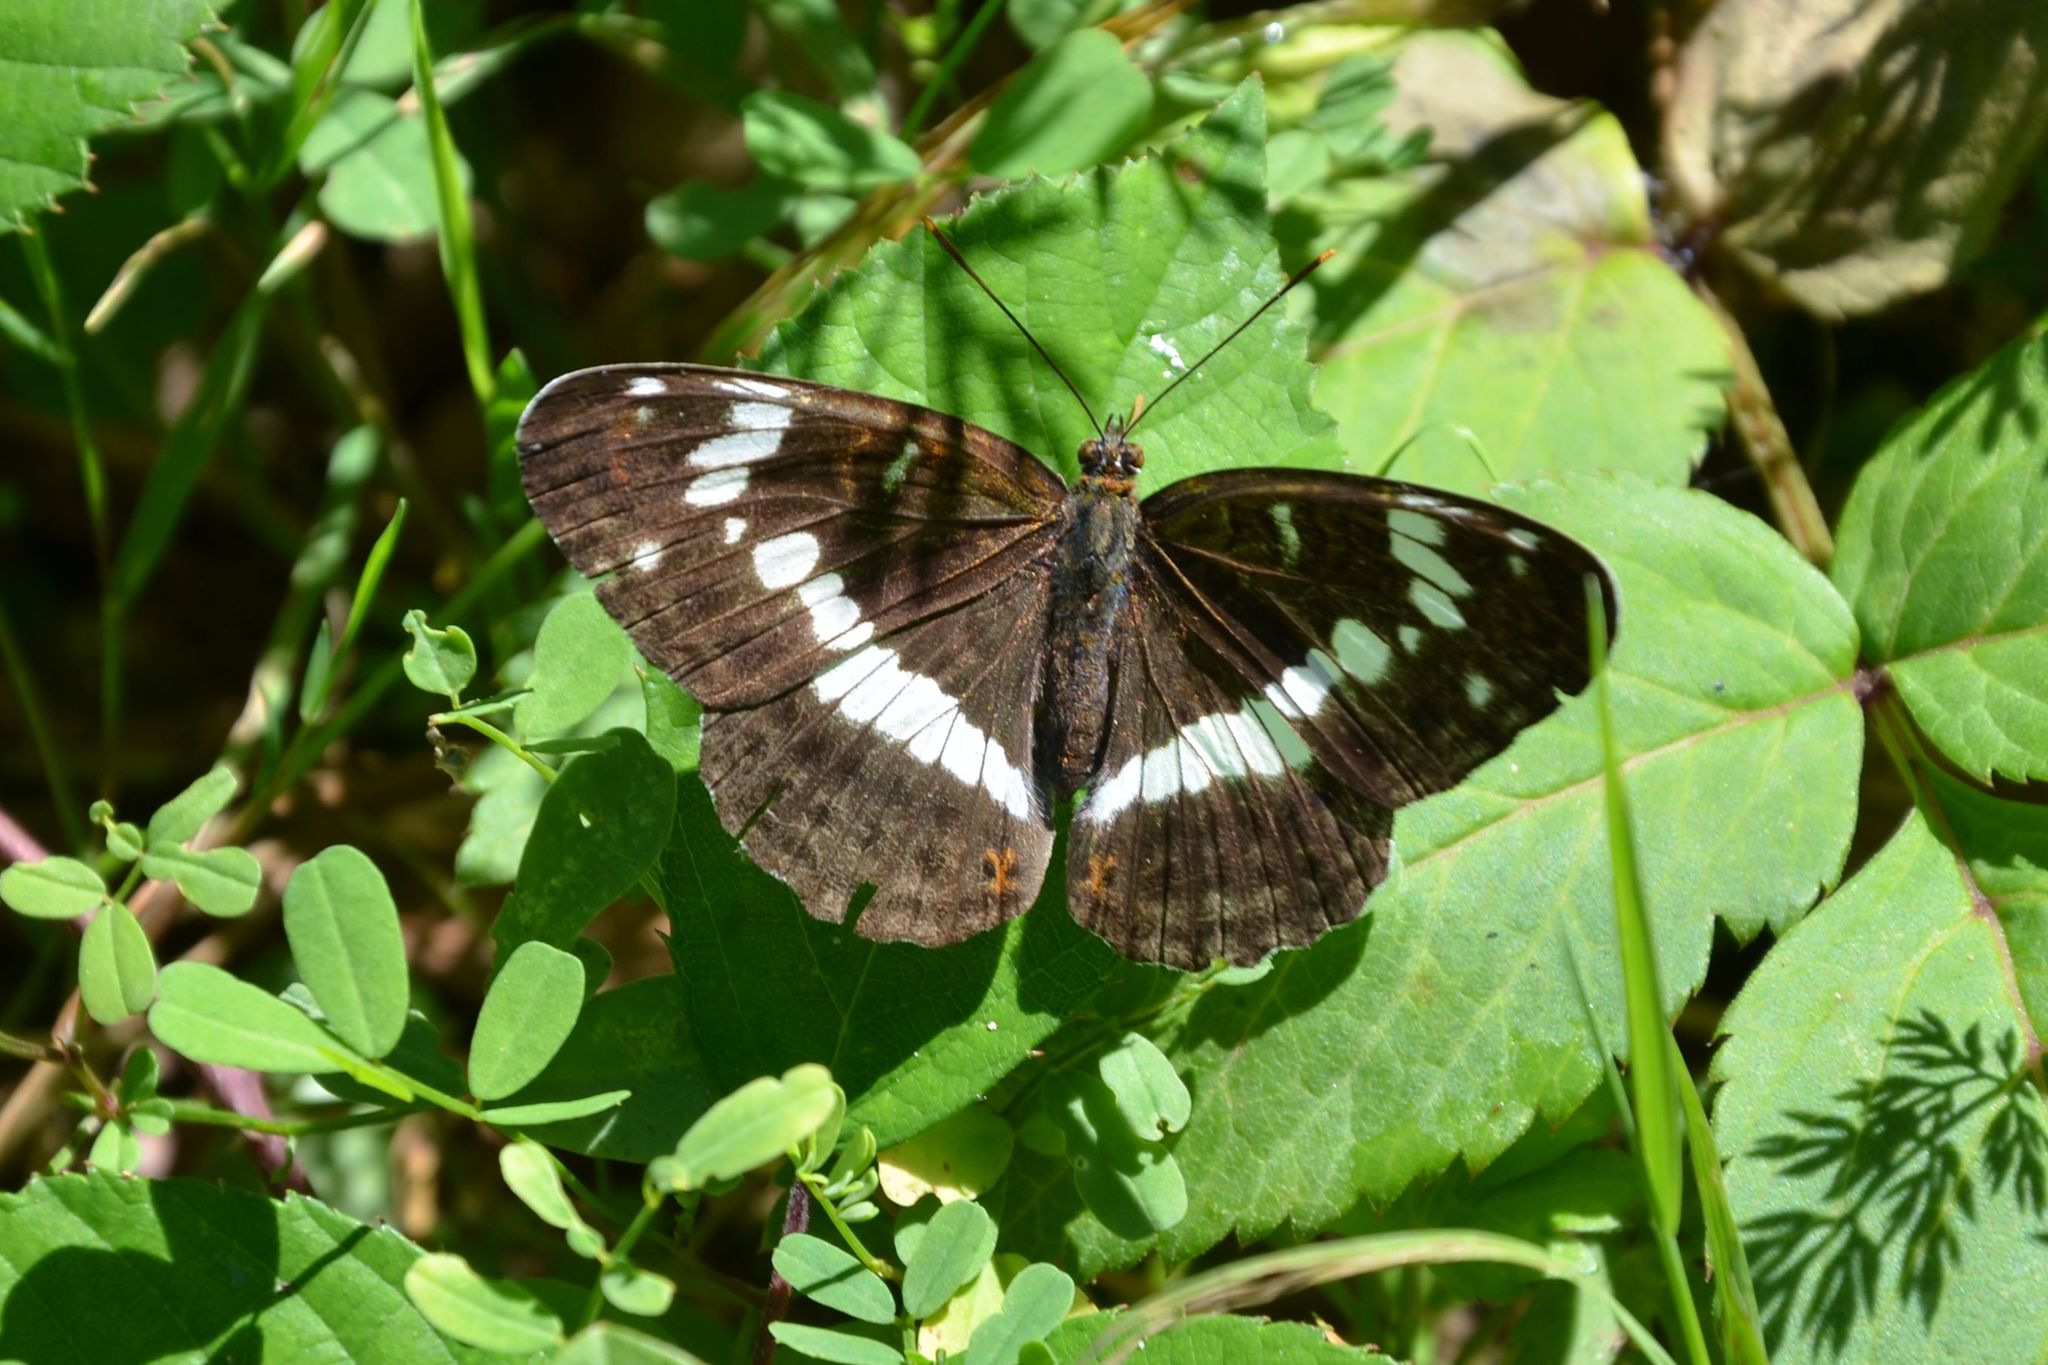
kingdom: Animalia
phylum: Arthropoda
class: Insecta
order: Lepidoptera
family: Nymphalidae
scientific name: Nymphalidae
